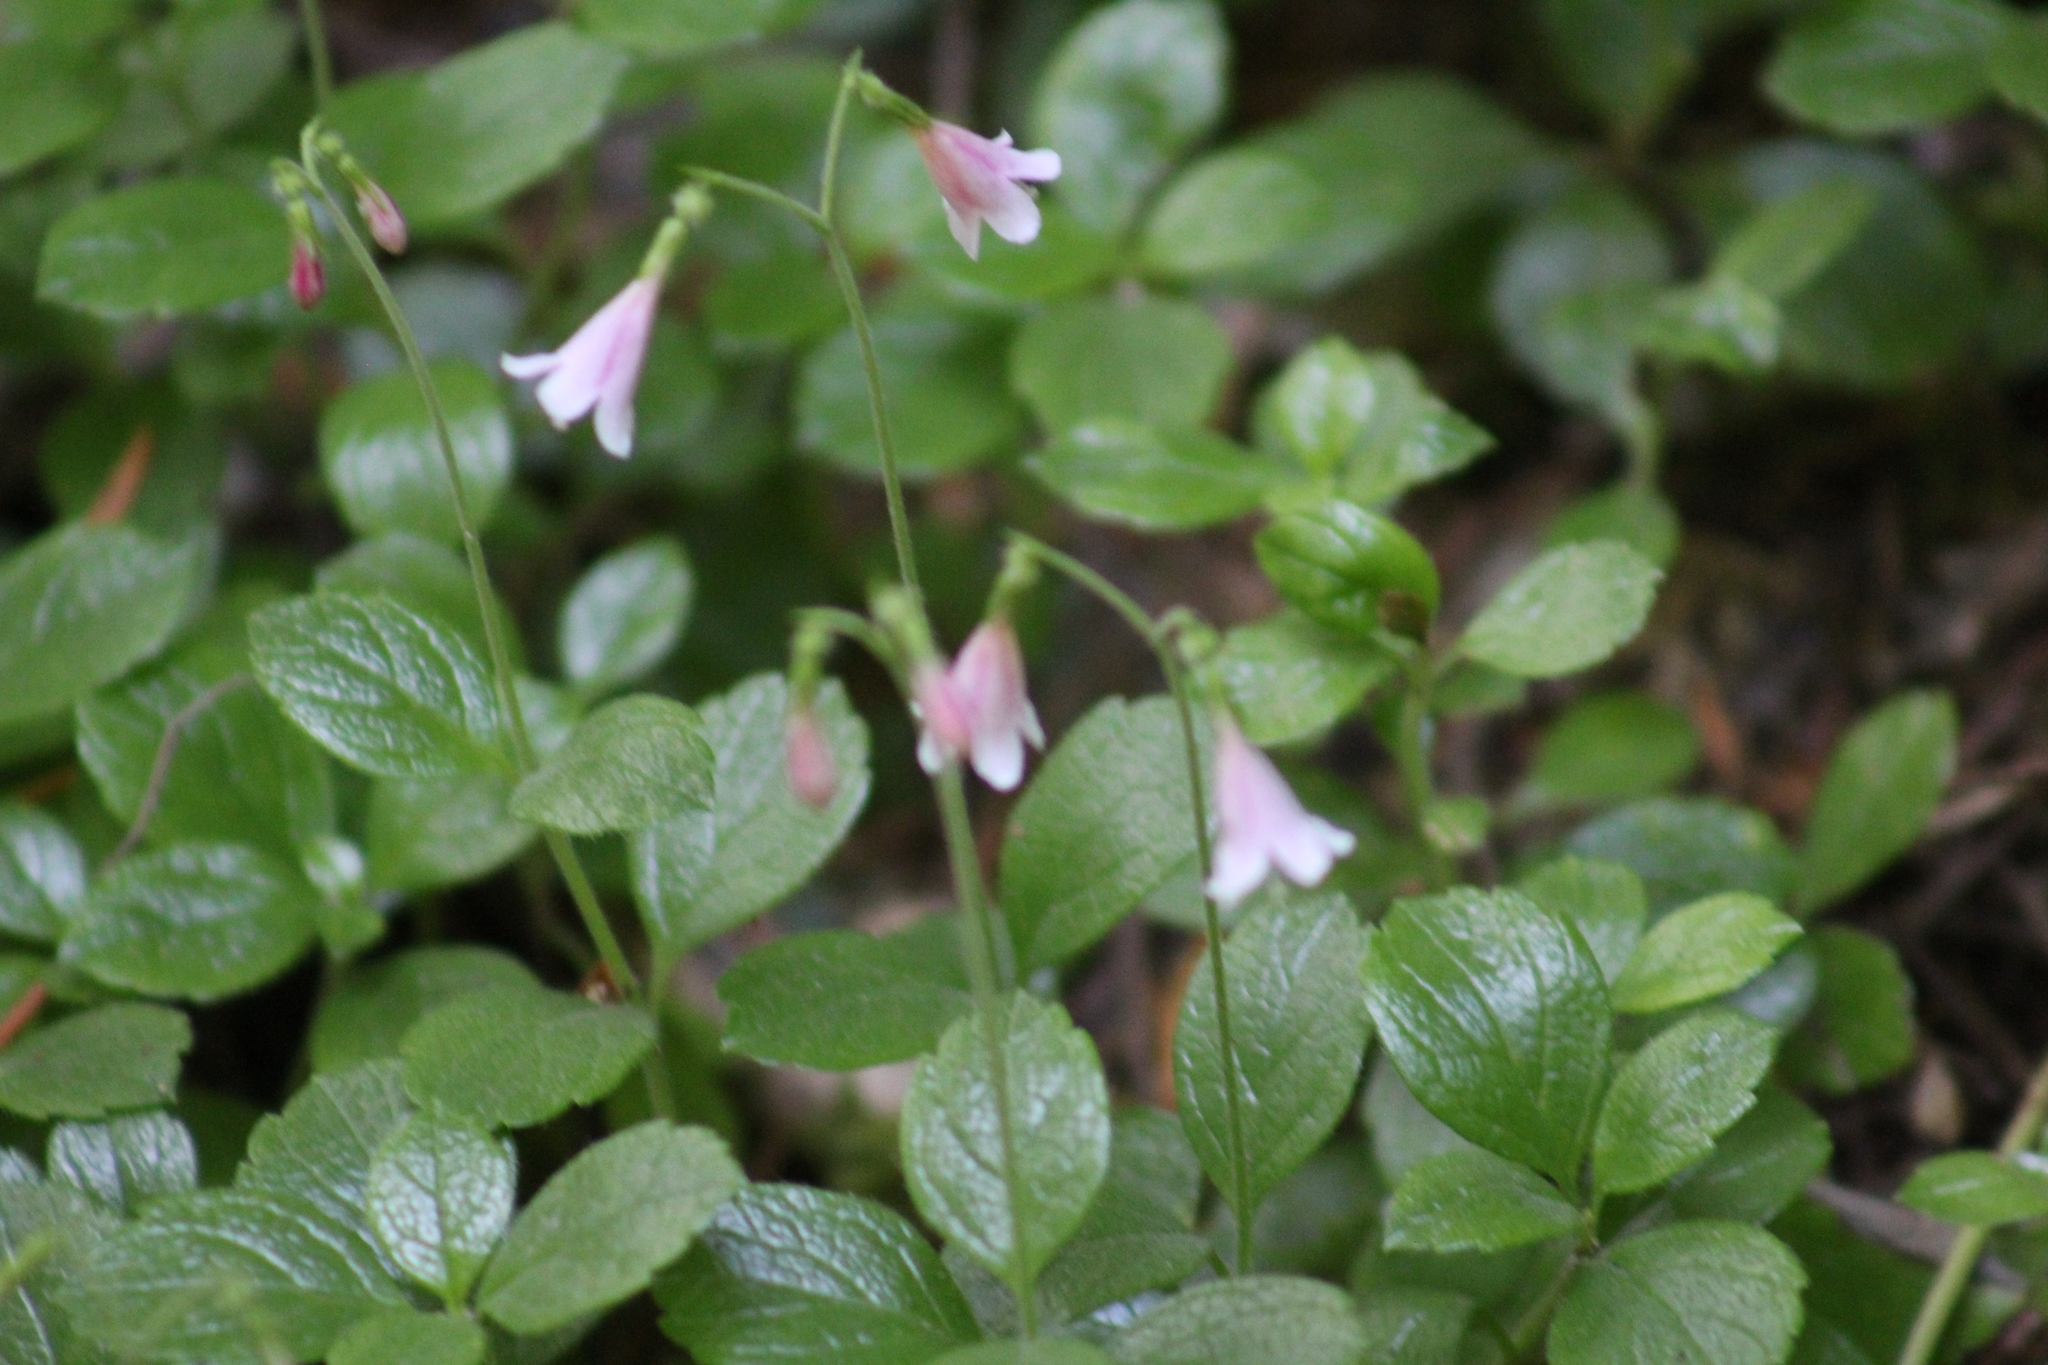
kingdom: Plantae
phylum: Tracheophyta
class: Magnoliopsida
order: Dipsacales
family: Caprifoliaceae
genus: Linnaea
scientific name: Linnaea borealis
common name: Twinflower
